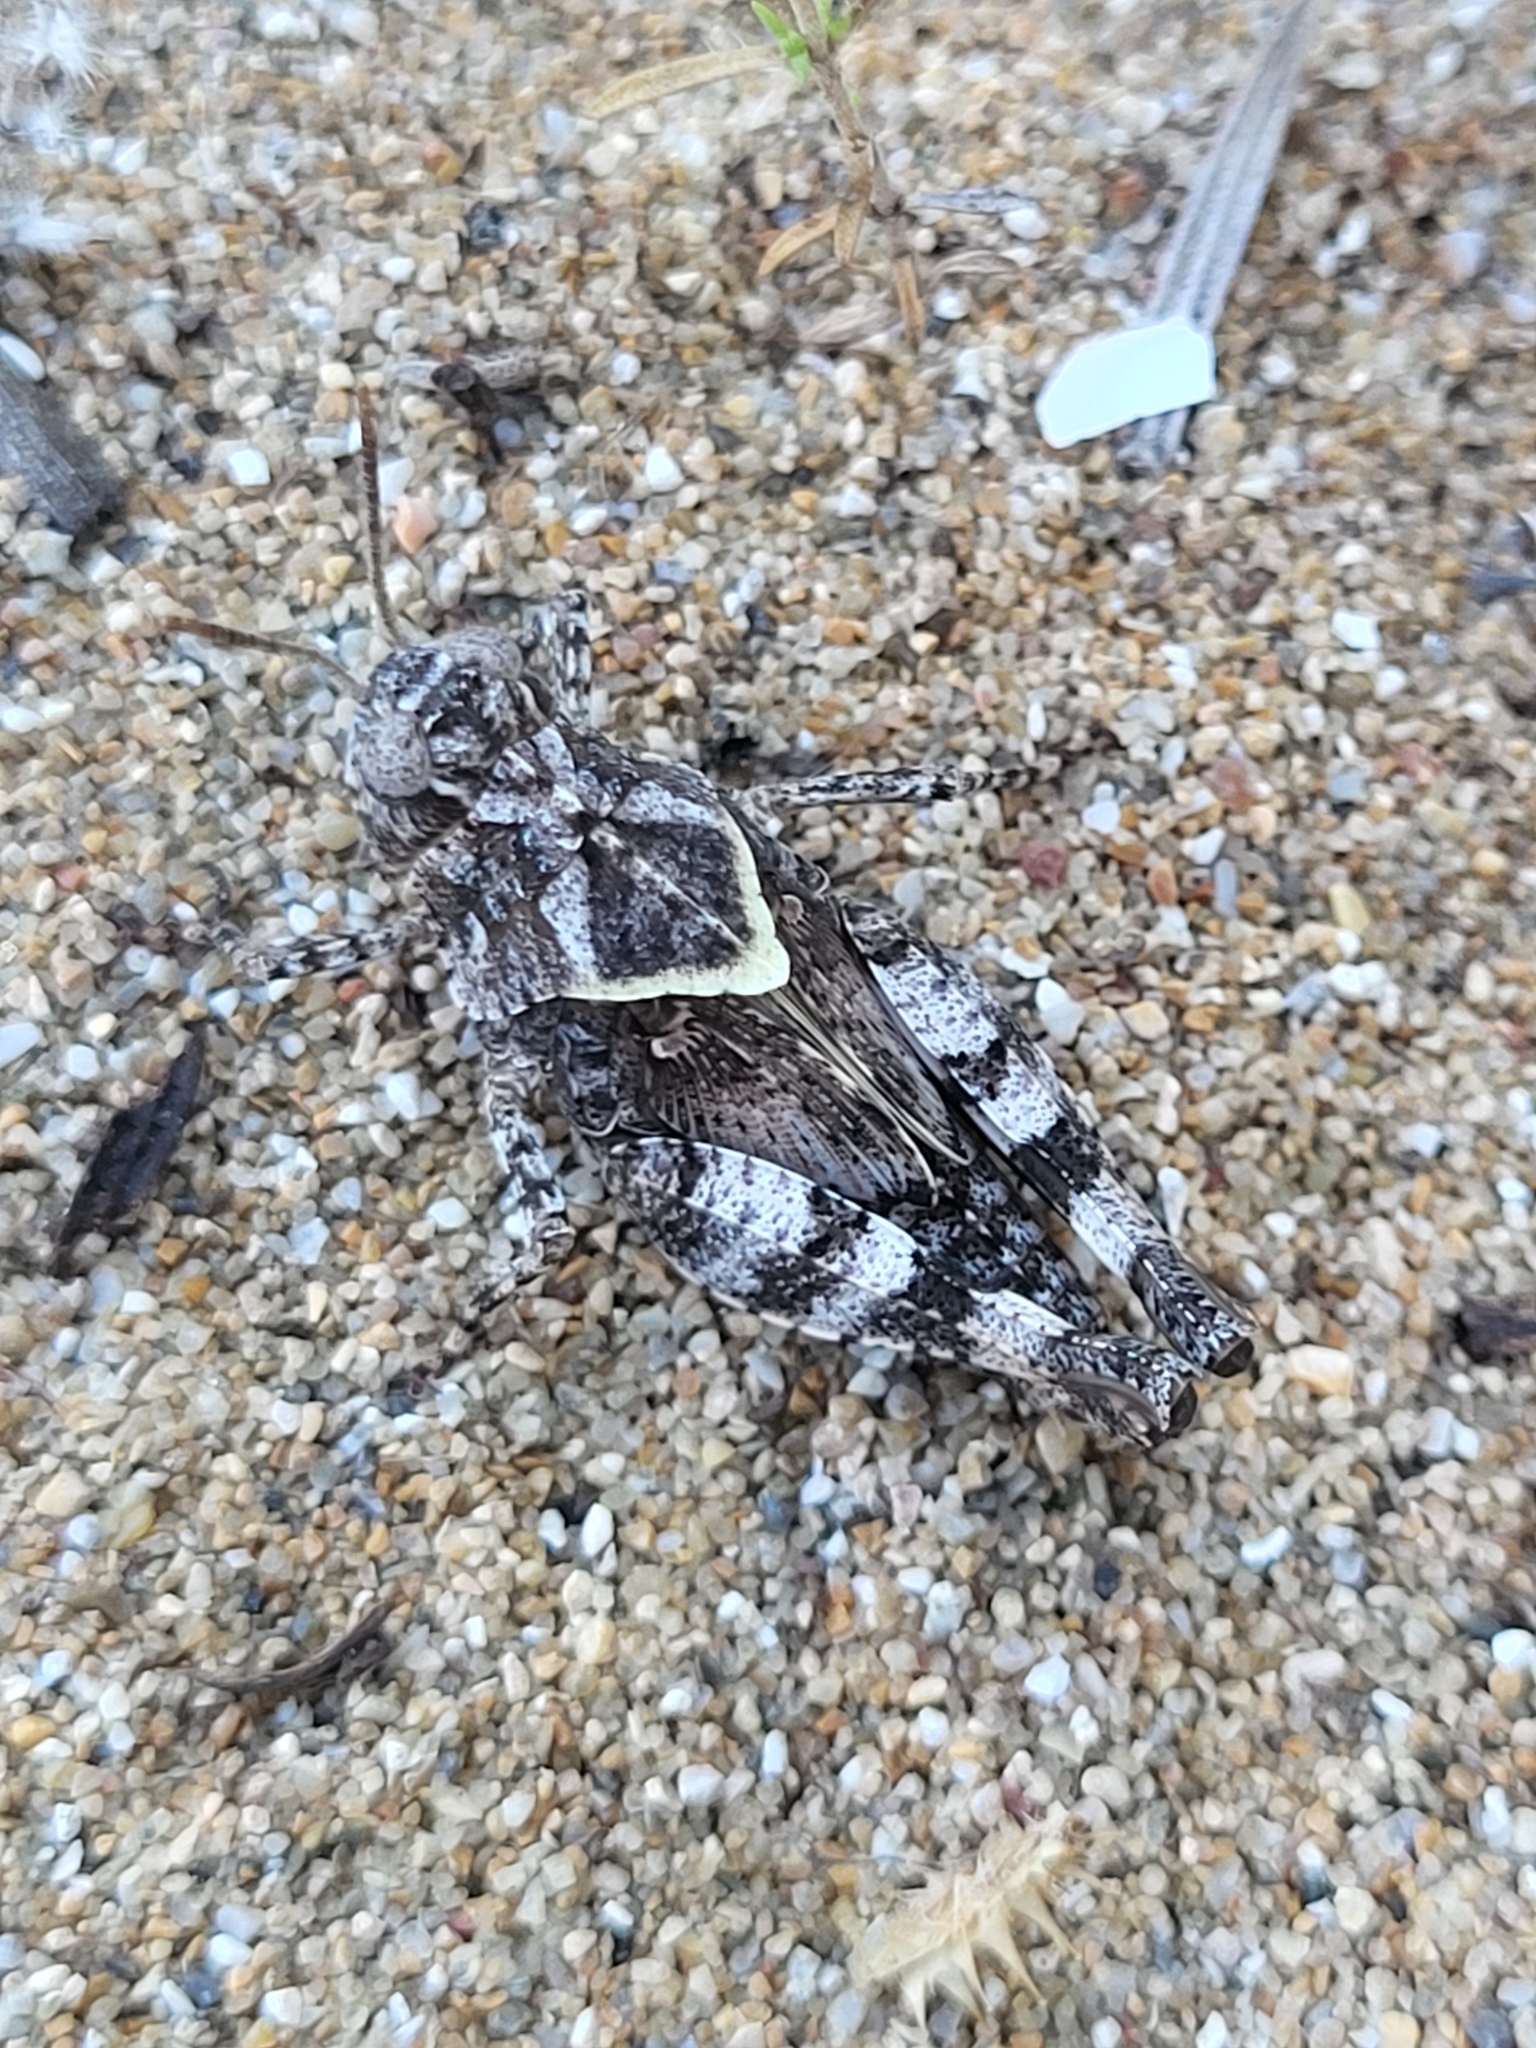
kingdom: Animalia
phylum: Arthropoda
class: Insecta
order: Orthoptera
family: Acrididae
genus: Oedipoda
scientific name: Oedipoda
